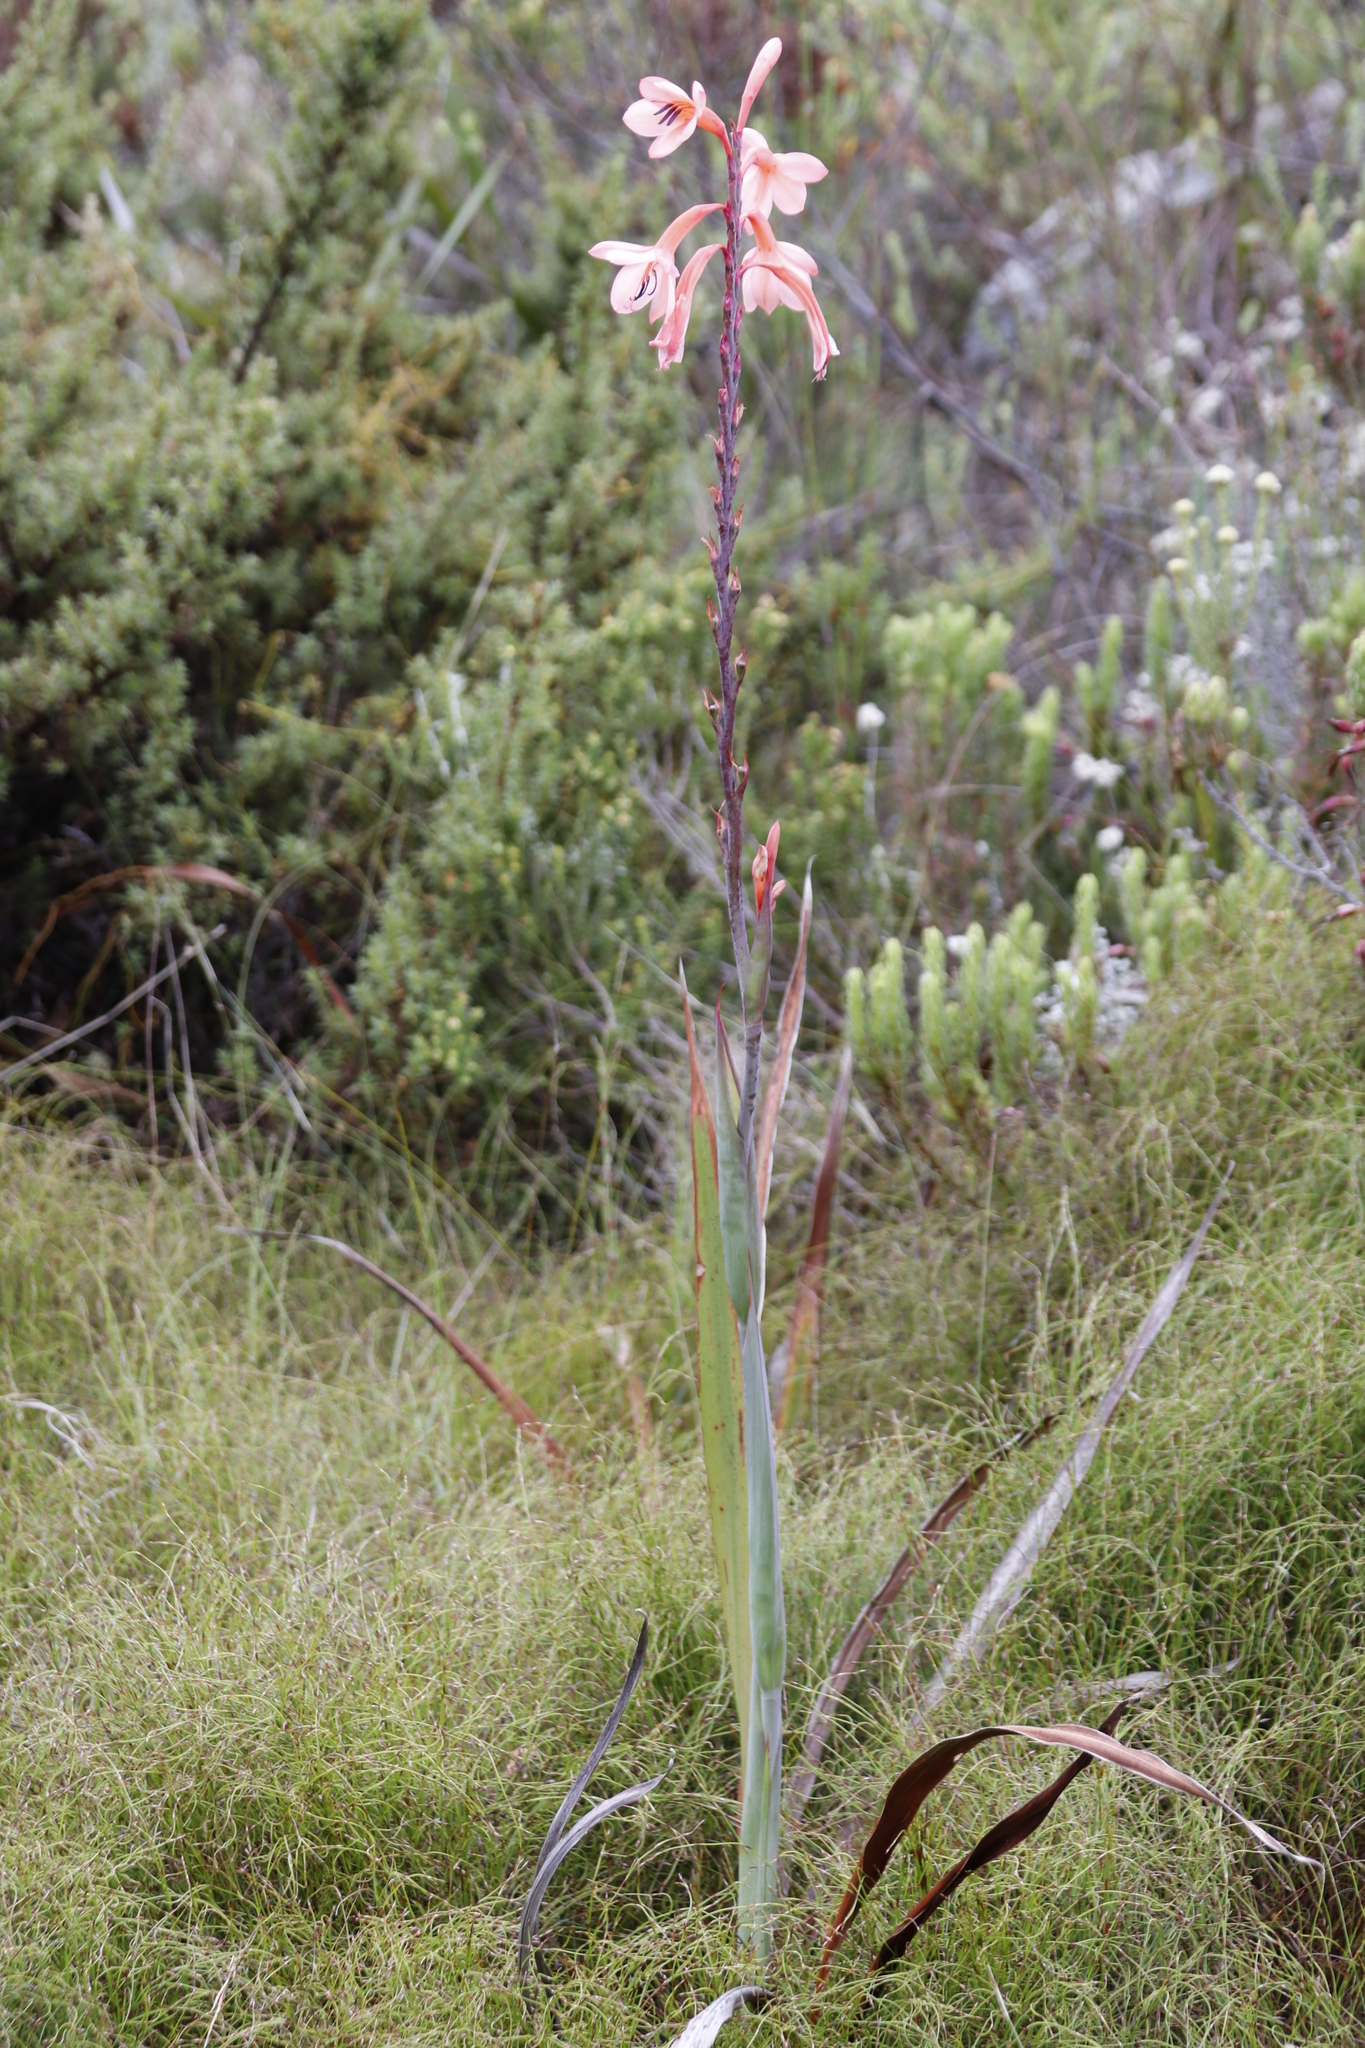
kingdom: Plantae
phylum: Tracheophyta
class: Liliopsida
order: Asparagales
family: Iridaceae
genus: Watsonia
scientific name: Watsonia tabularis
